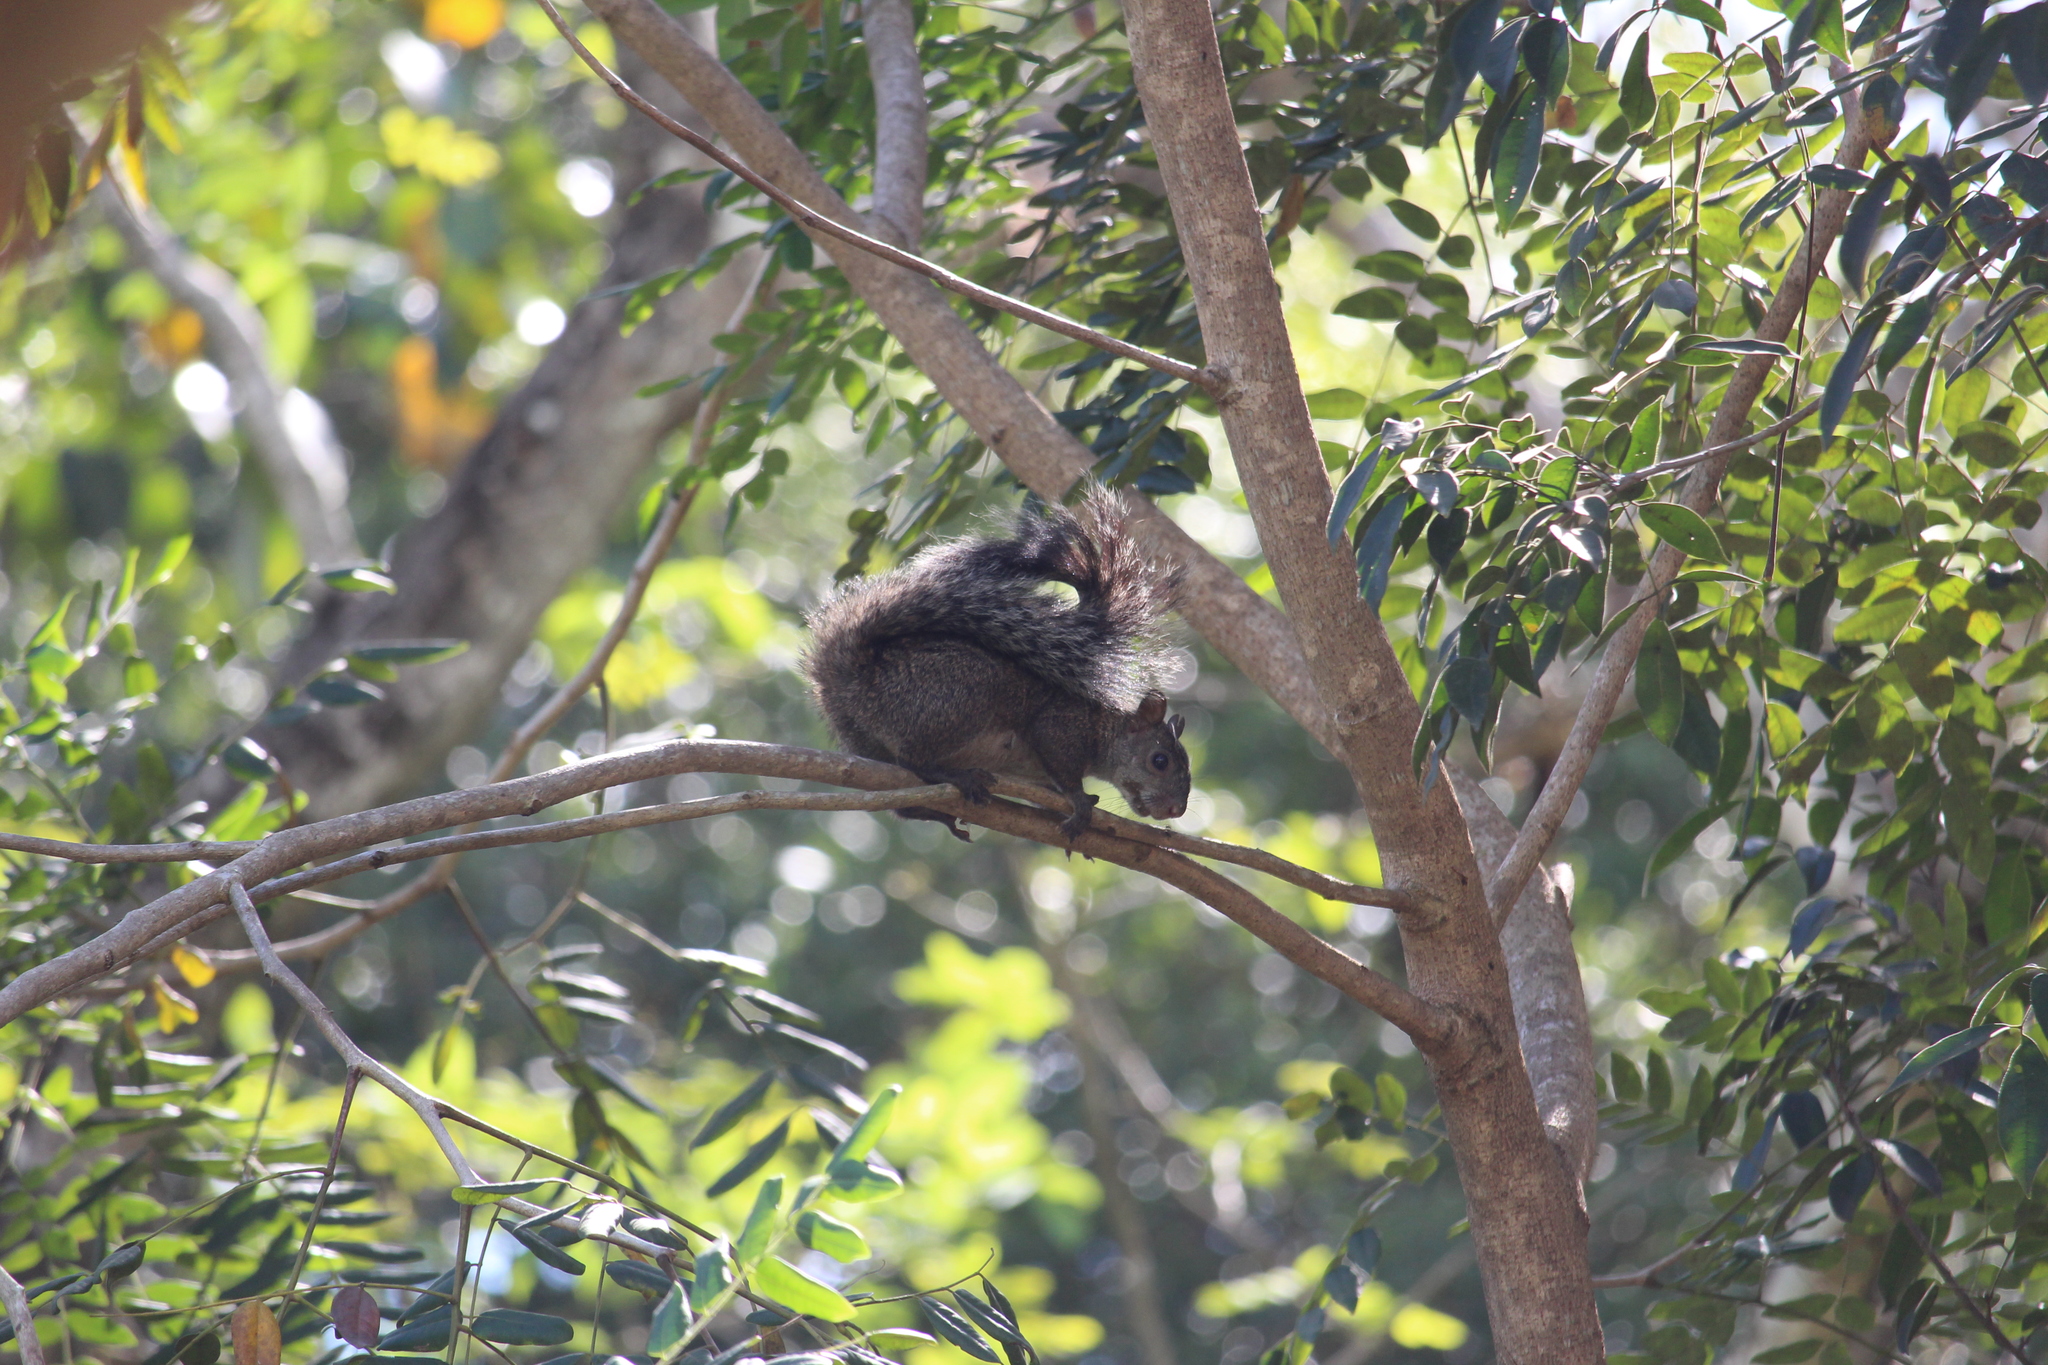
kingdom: Animalia
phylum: Chordata
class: Mammalia
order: Rodentia
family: Sciuridae
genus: Sciurus
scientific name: Sciurus yucatanensis
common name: Yucatan squirrel
